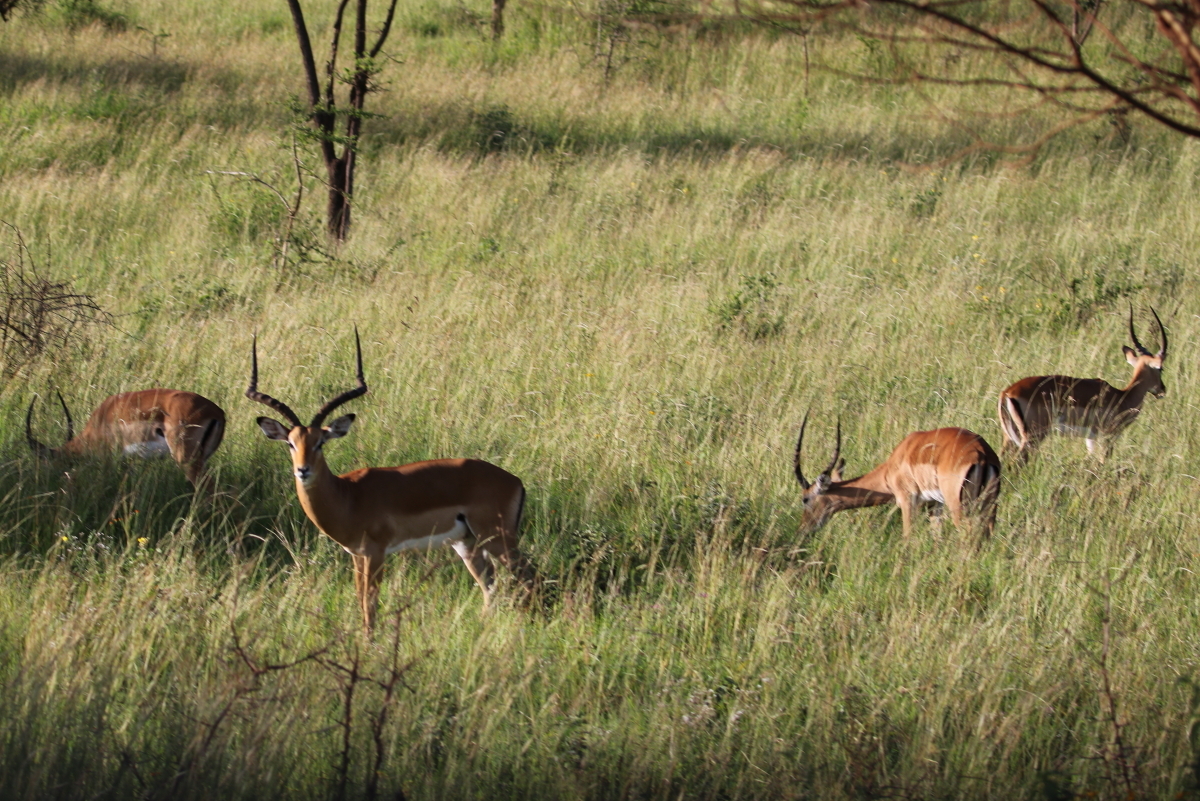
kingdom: Animalia
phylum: Chordata
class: Mammalia
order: Artiodactyla
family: Bovidae
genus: Aepyceros
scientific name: Aepyceros melampus
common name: Impala
